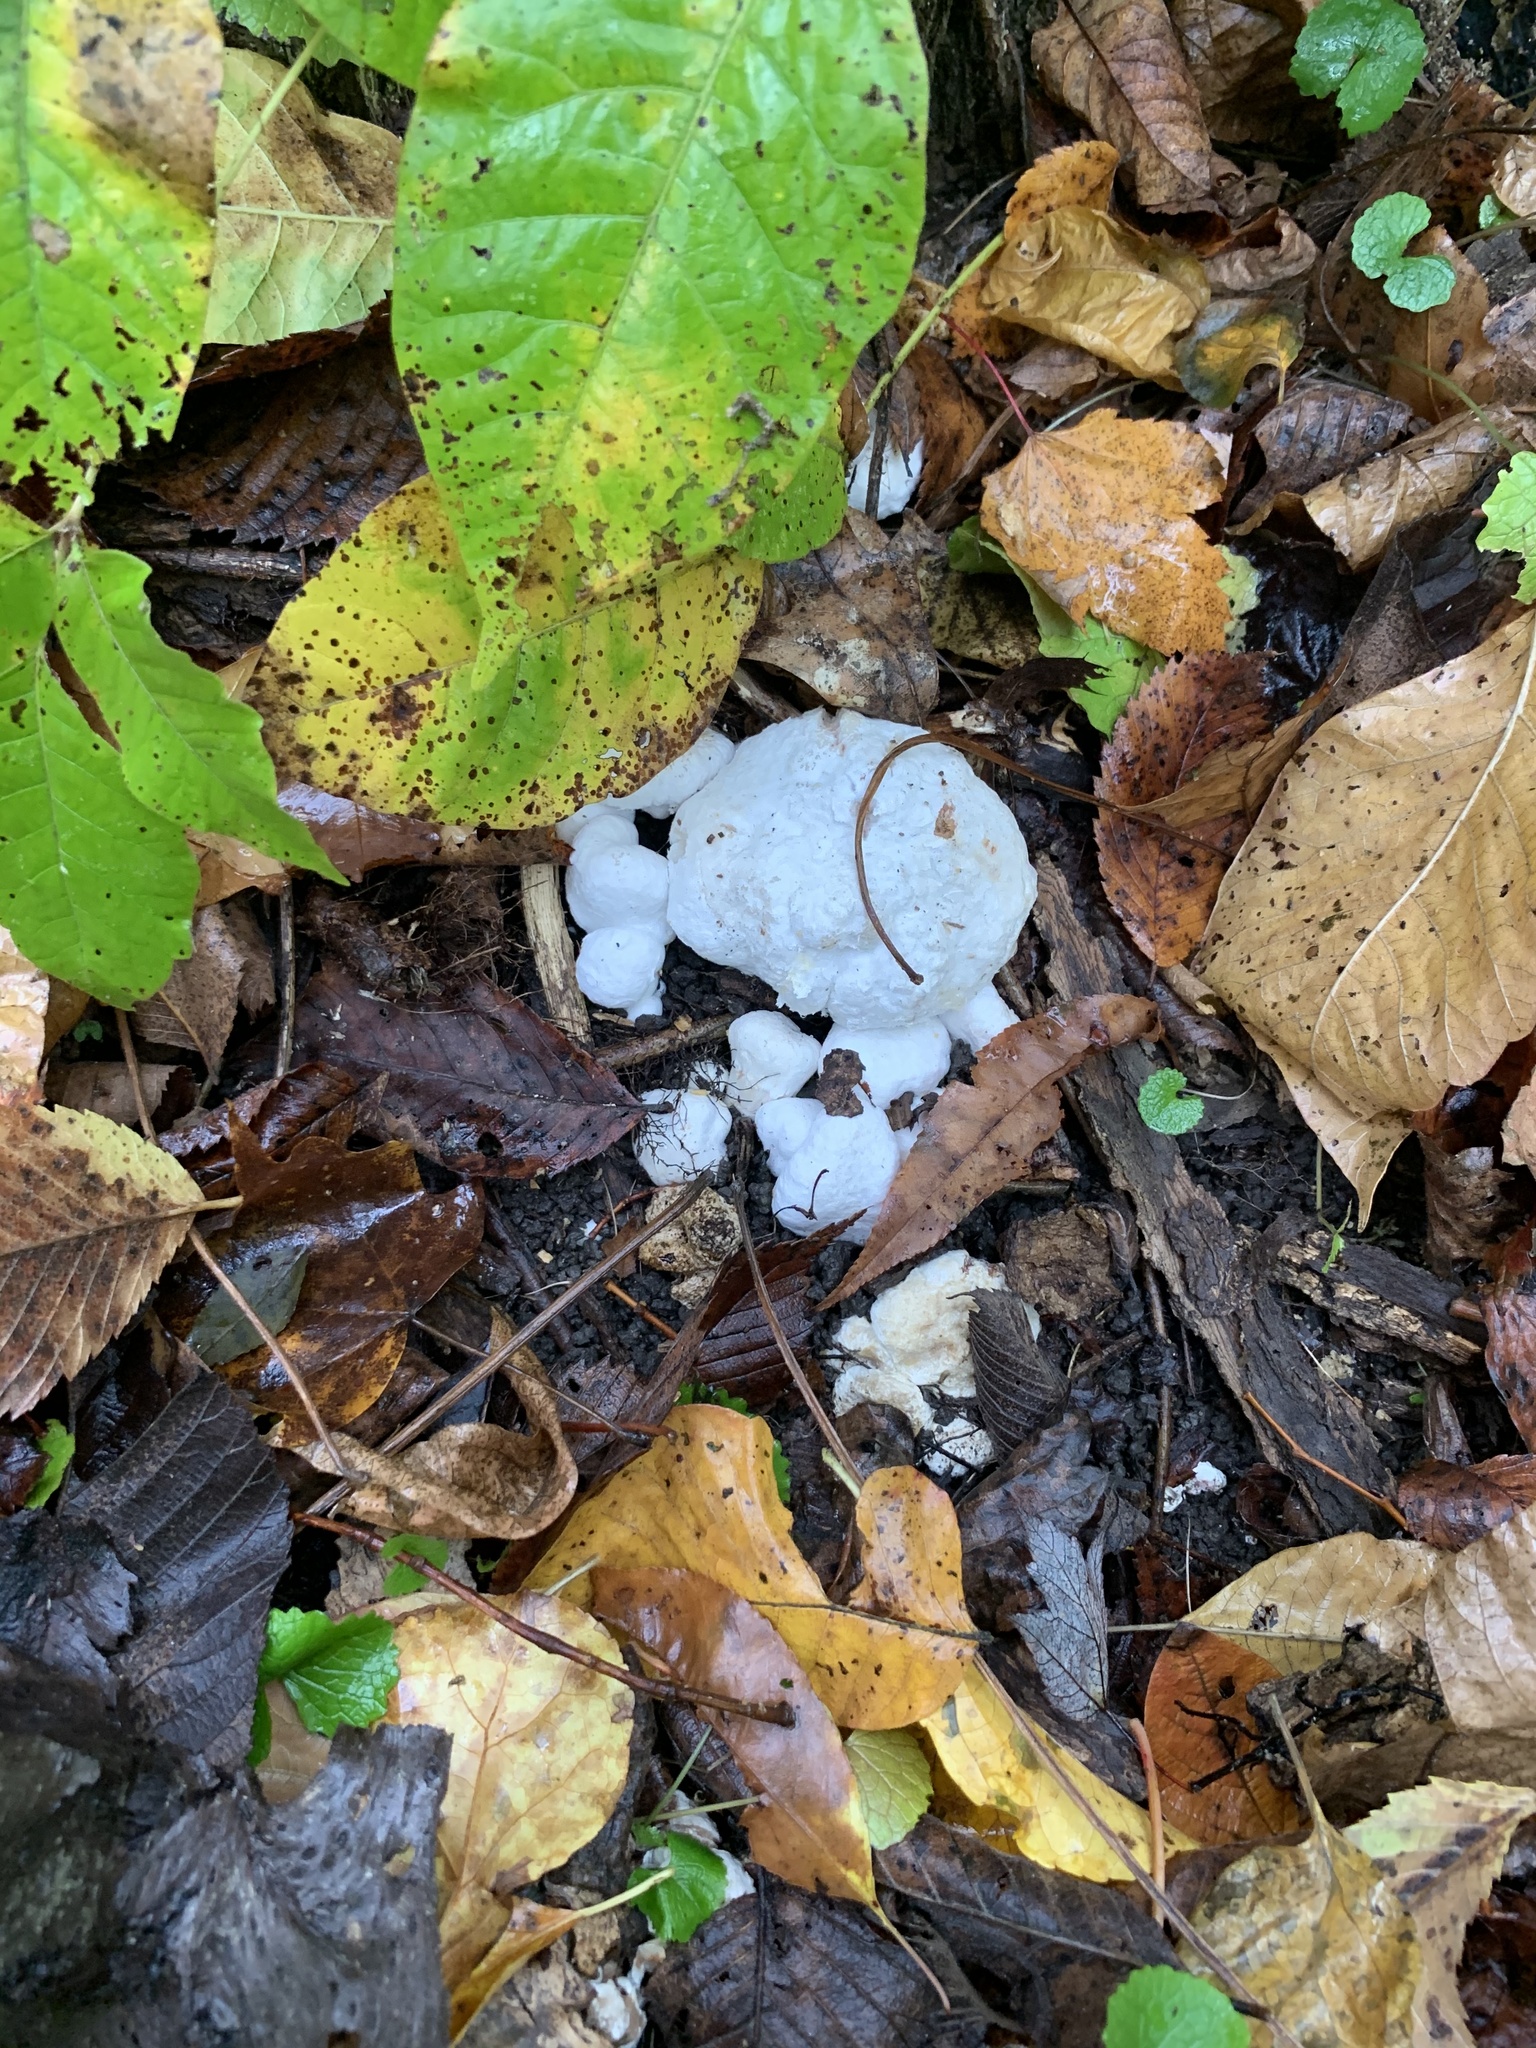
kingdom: Fungi
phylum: Basidiomycota
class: Agaricomycetes
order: Agaricales
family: Entolomataceae
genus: Entoloma
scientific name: Entoloma abortivum
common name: Aborted entoloma
